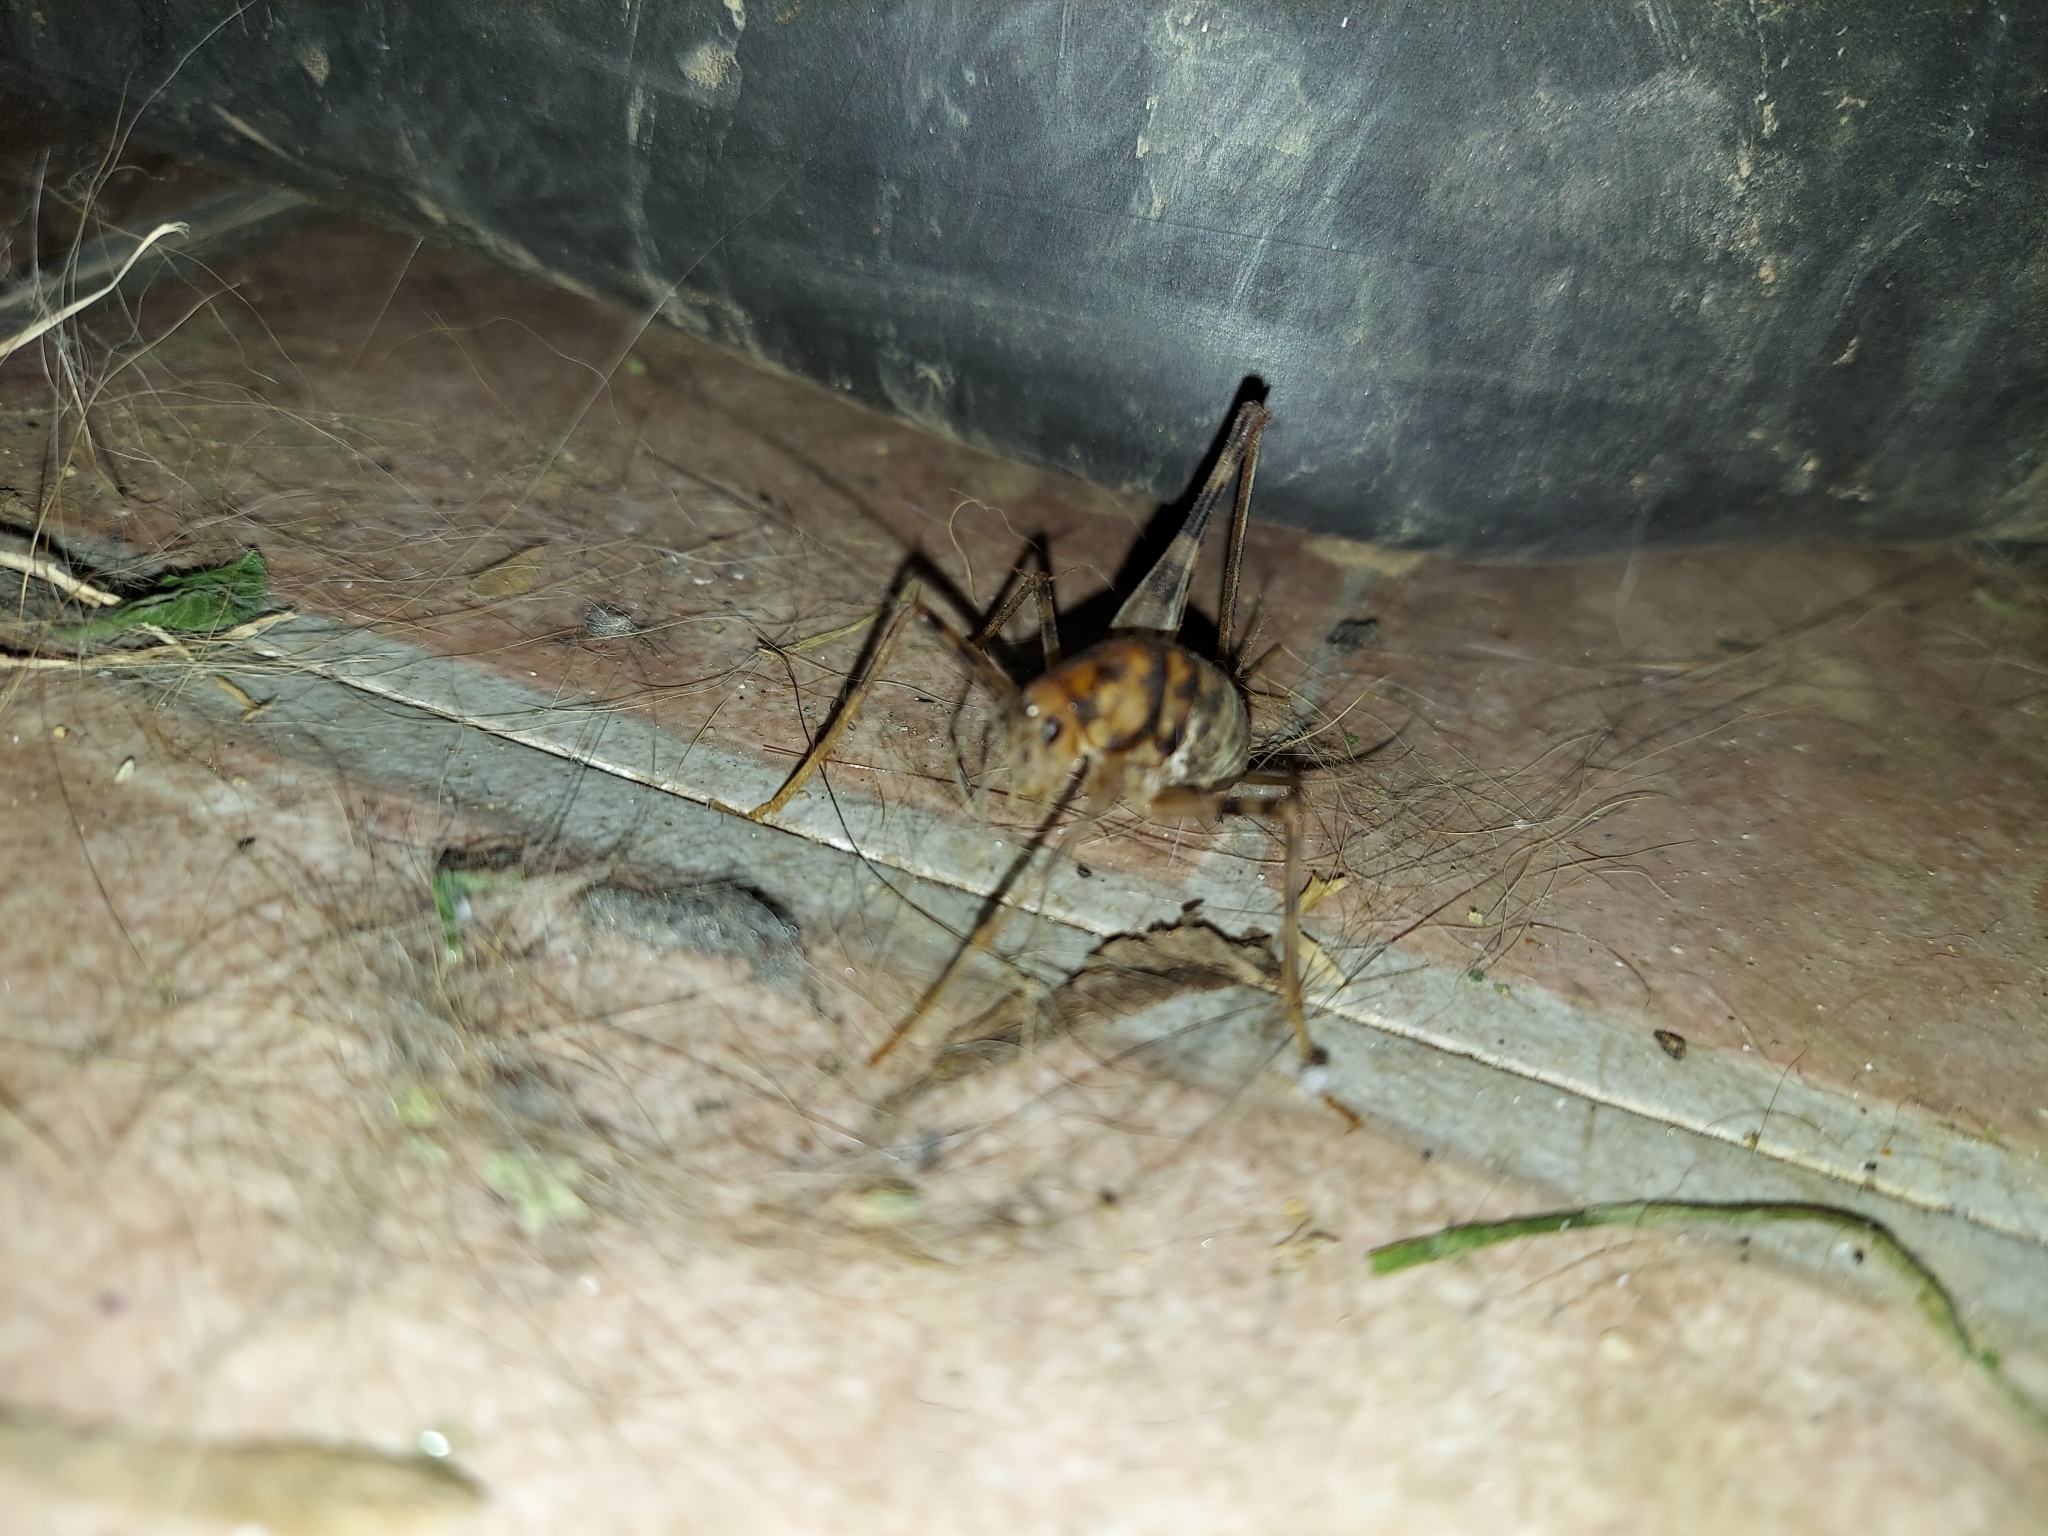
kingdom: Animalia
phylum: Arthropoda
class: Insecta
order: Orthoptera
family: Rhaphidophoridae
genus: Tachycines
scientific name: Tachycines asynamorus
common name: Greenhouse camel cricket
